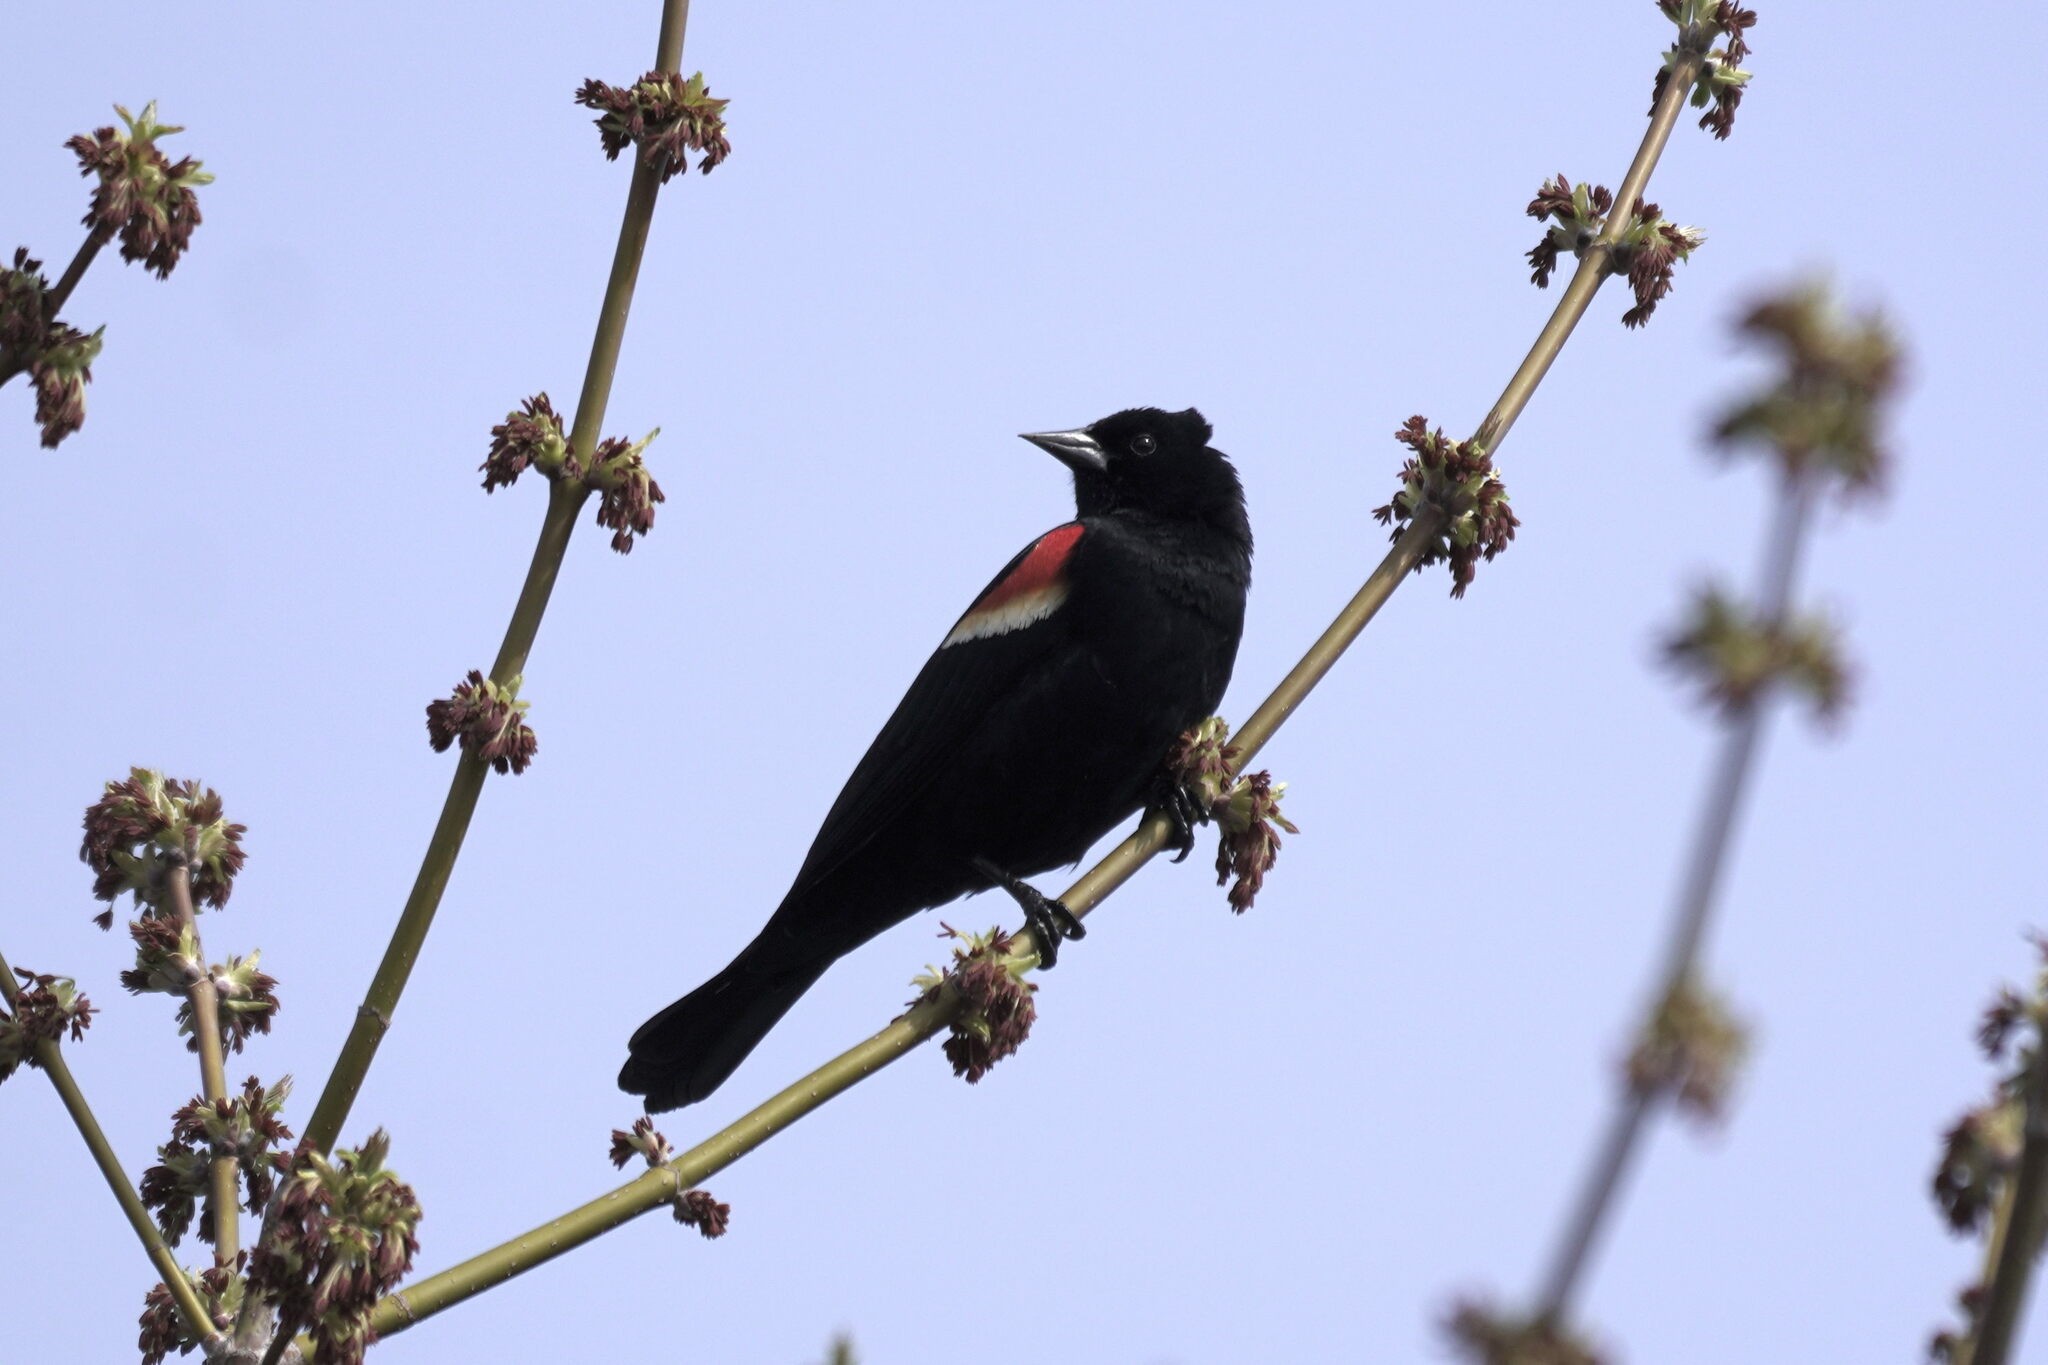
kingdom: Animalia
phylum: Chordata
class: Aves
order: Passeriformes
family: Icteridae
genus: Agelaius
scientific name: Agelaius phoeniceus
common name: Red-winged blackbird
